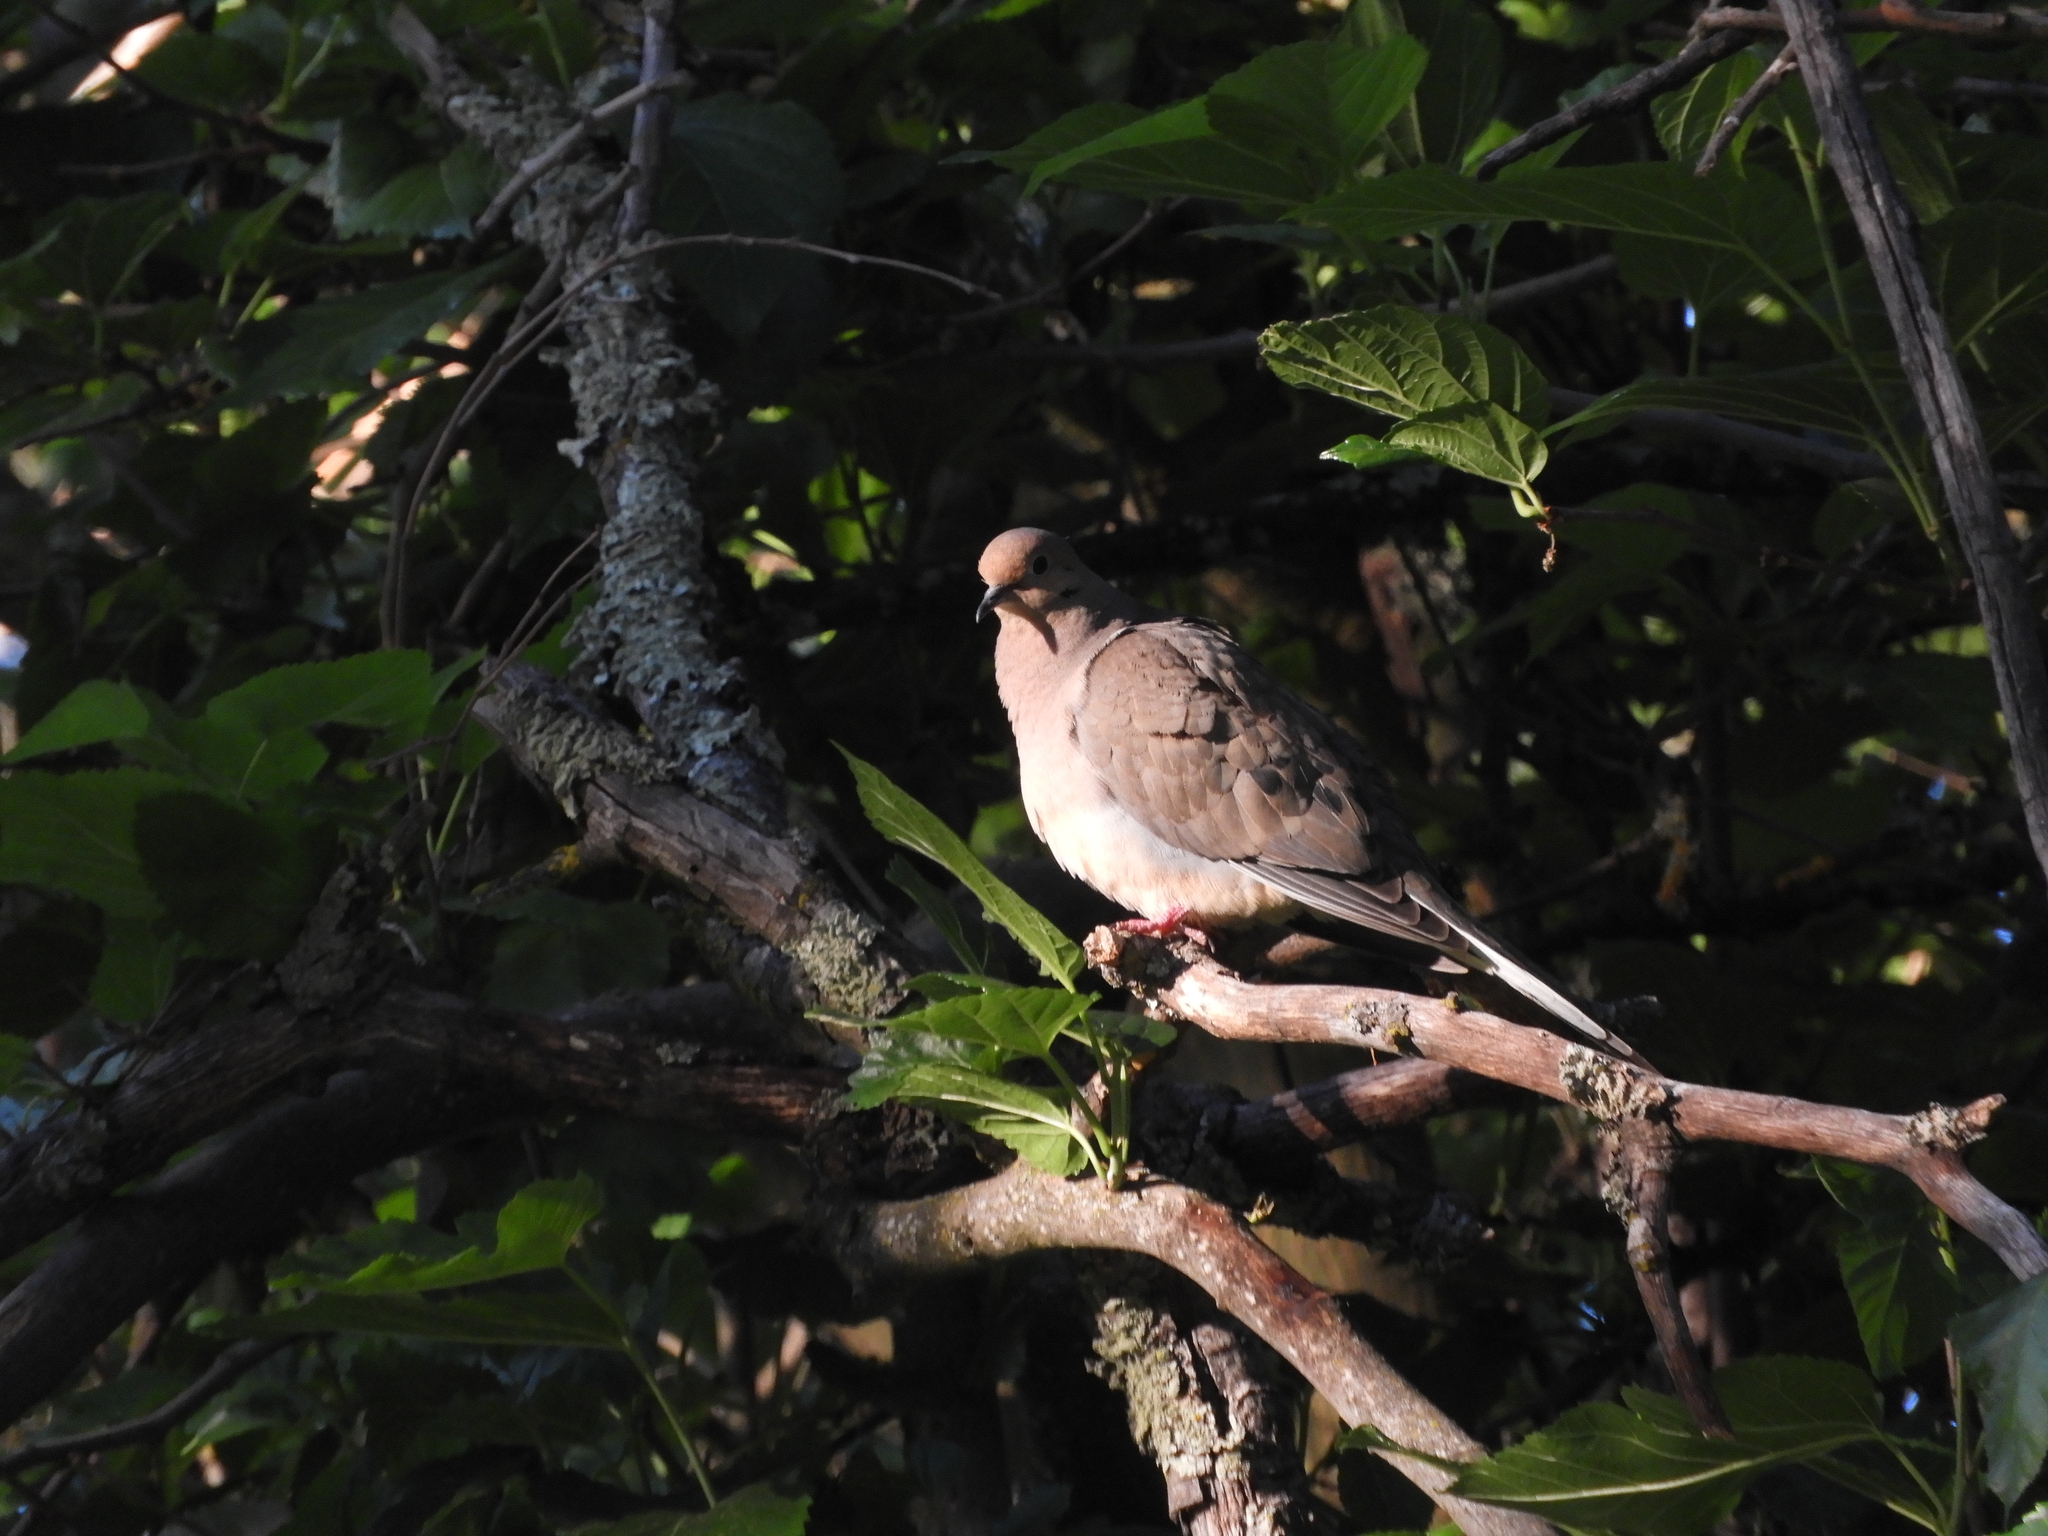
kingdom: Animalia
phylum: Chordata
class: Aves
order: Columbiformes
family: Columbidae
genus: Zenaida
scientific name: Zenaida macroura
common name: Mourning dove
